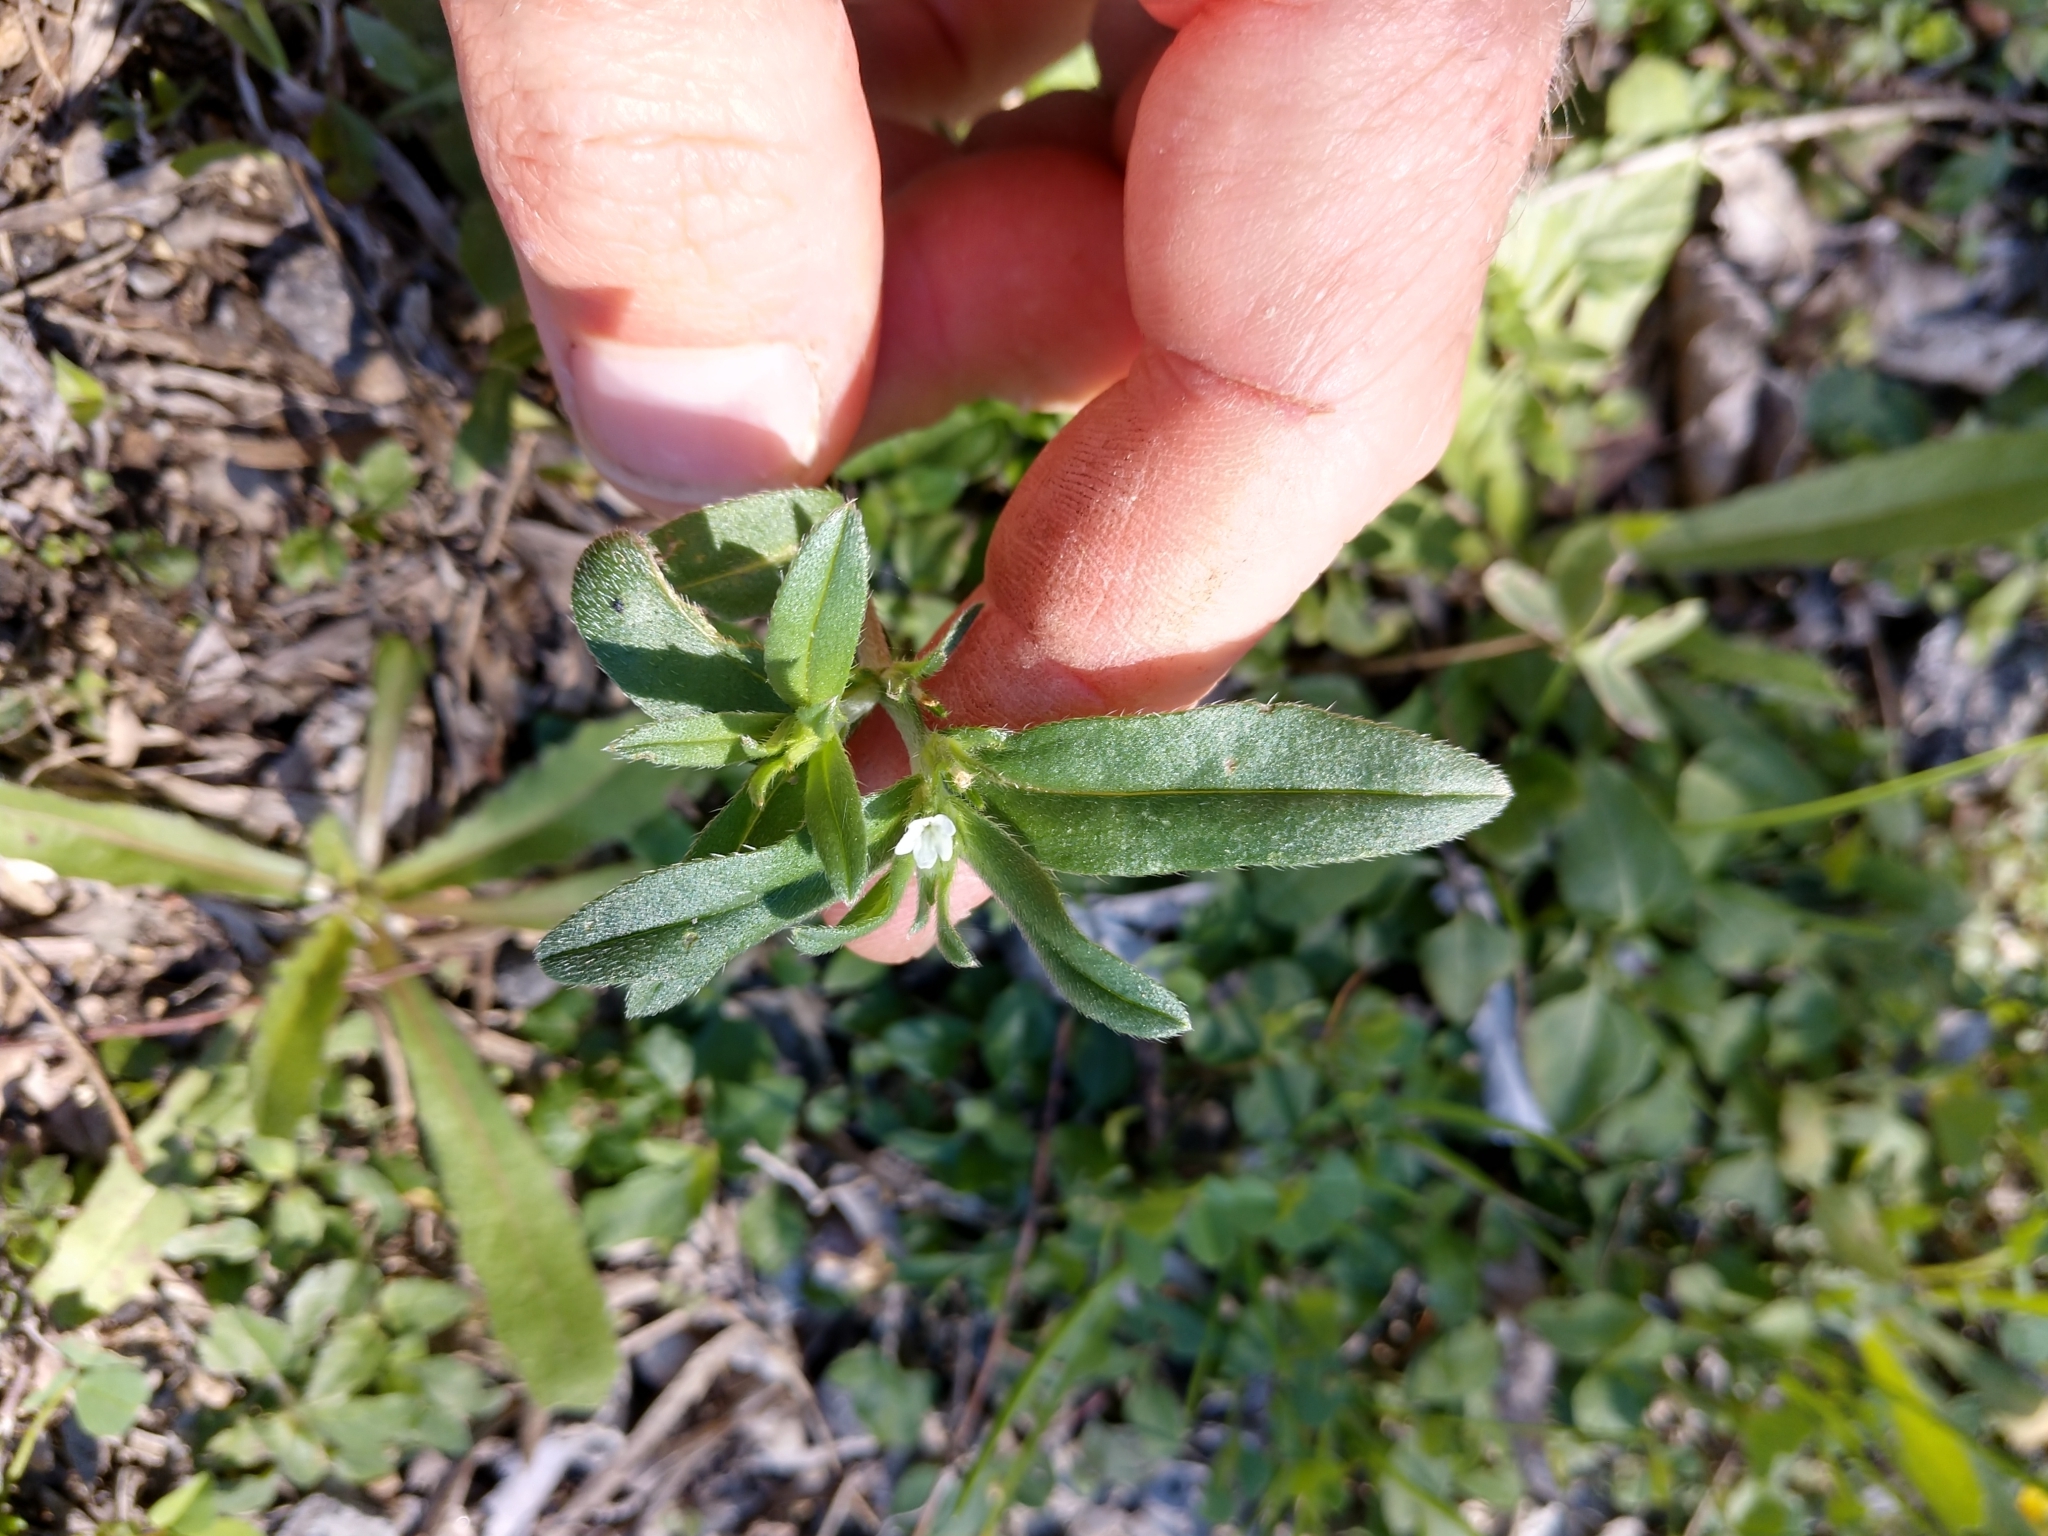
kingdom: Plantae
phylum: Tracheophyta
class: Magnoliopsida
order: Boraginales
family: Boraginaceae
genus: Buglossoides
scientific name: Buglossoides arvensis
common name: Corn gromwell
